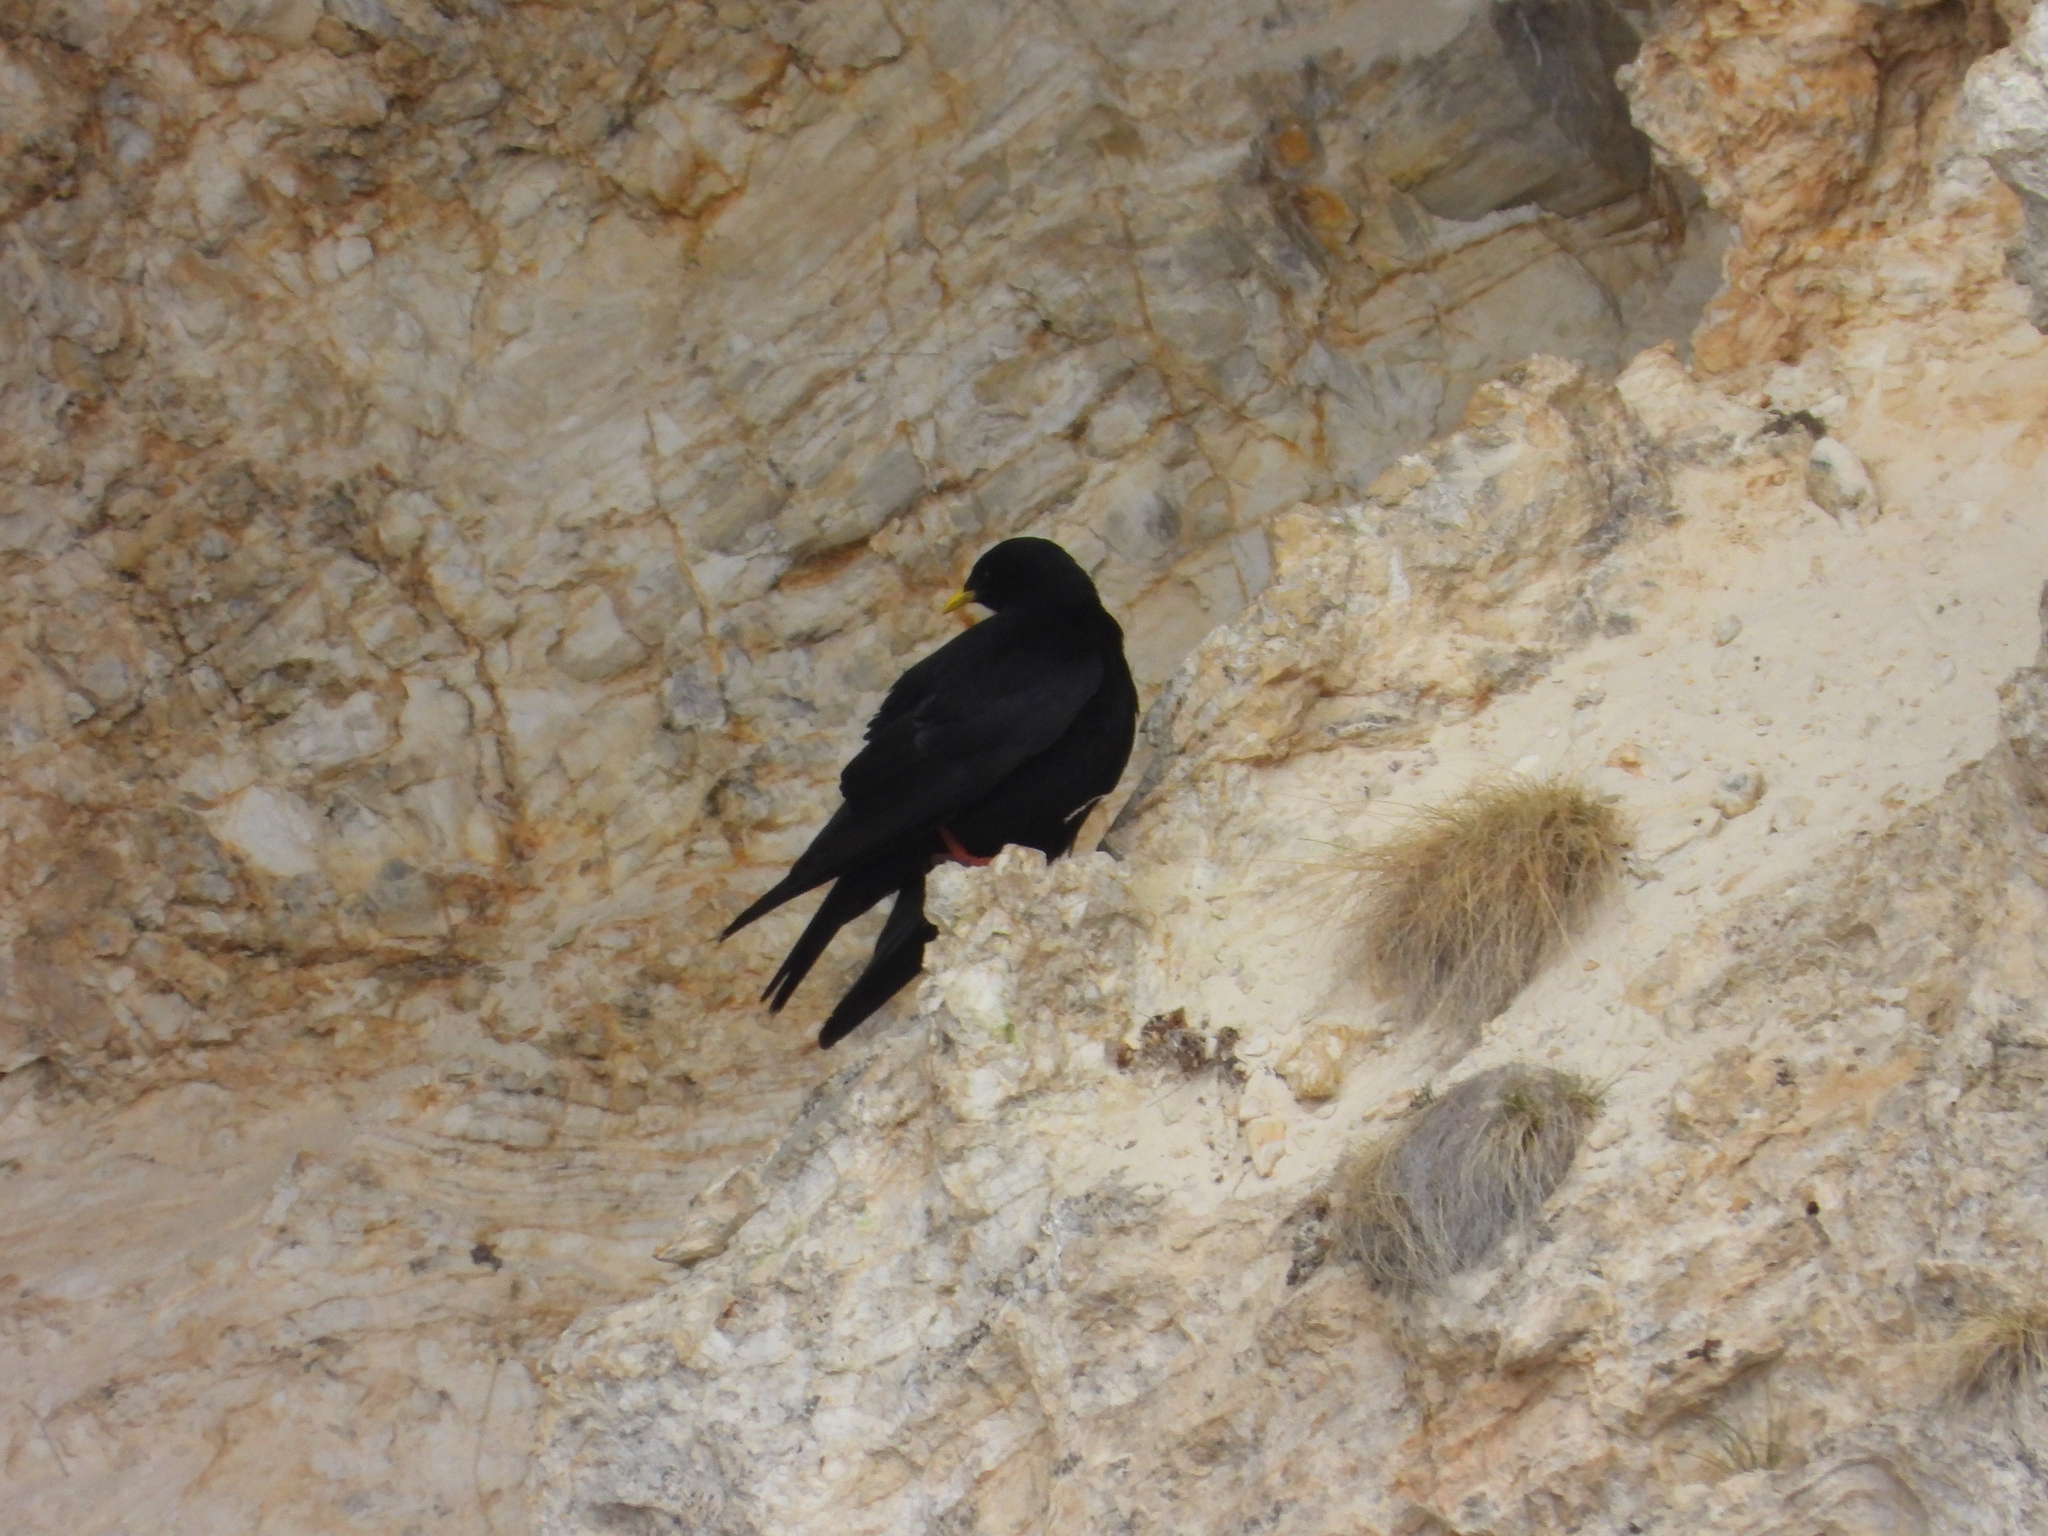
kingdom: Animalia
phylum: Chordata
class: Aves
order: Passeriformes
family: Corvidae
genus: Pyrrhocorax
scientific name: Pyrrhocorax graculus
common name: Alpine chough
